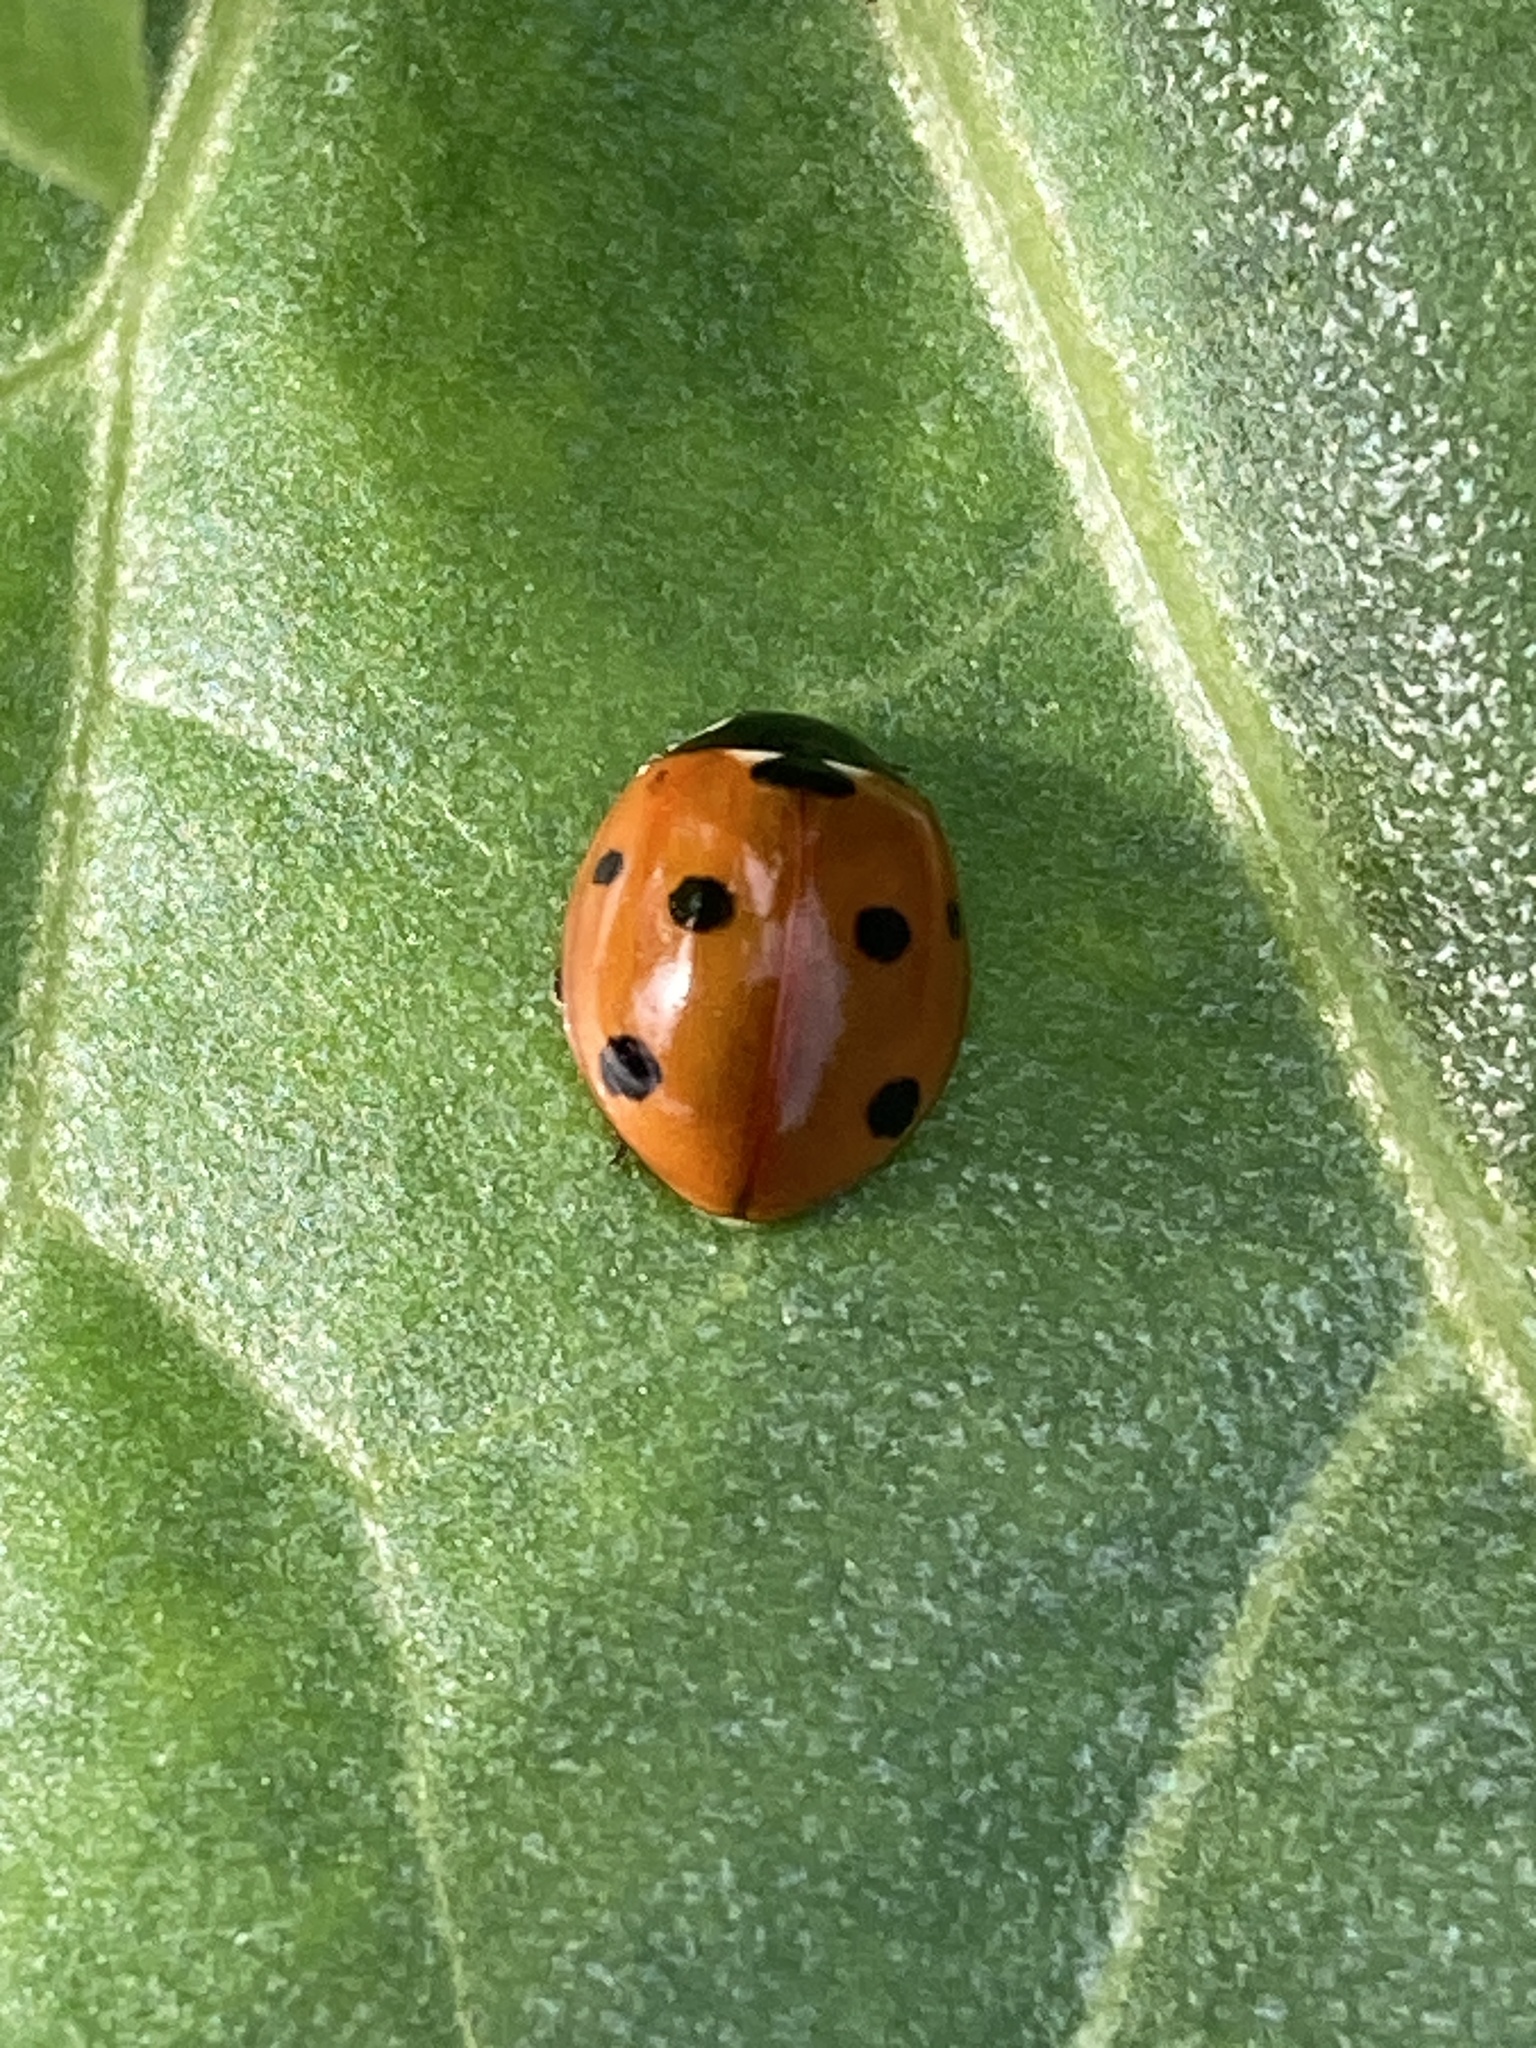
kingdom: Animalia
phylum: Arthropoda
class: Insecta
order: Coleoptera
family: Coccinellidae
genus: Coccinella
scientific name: Coccinella septempunctata
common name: Sevenspotted lady beetle
